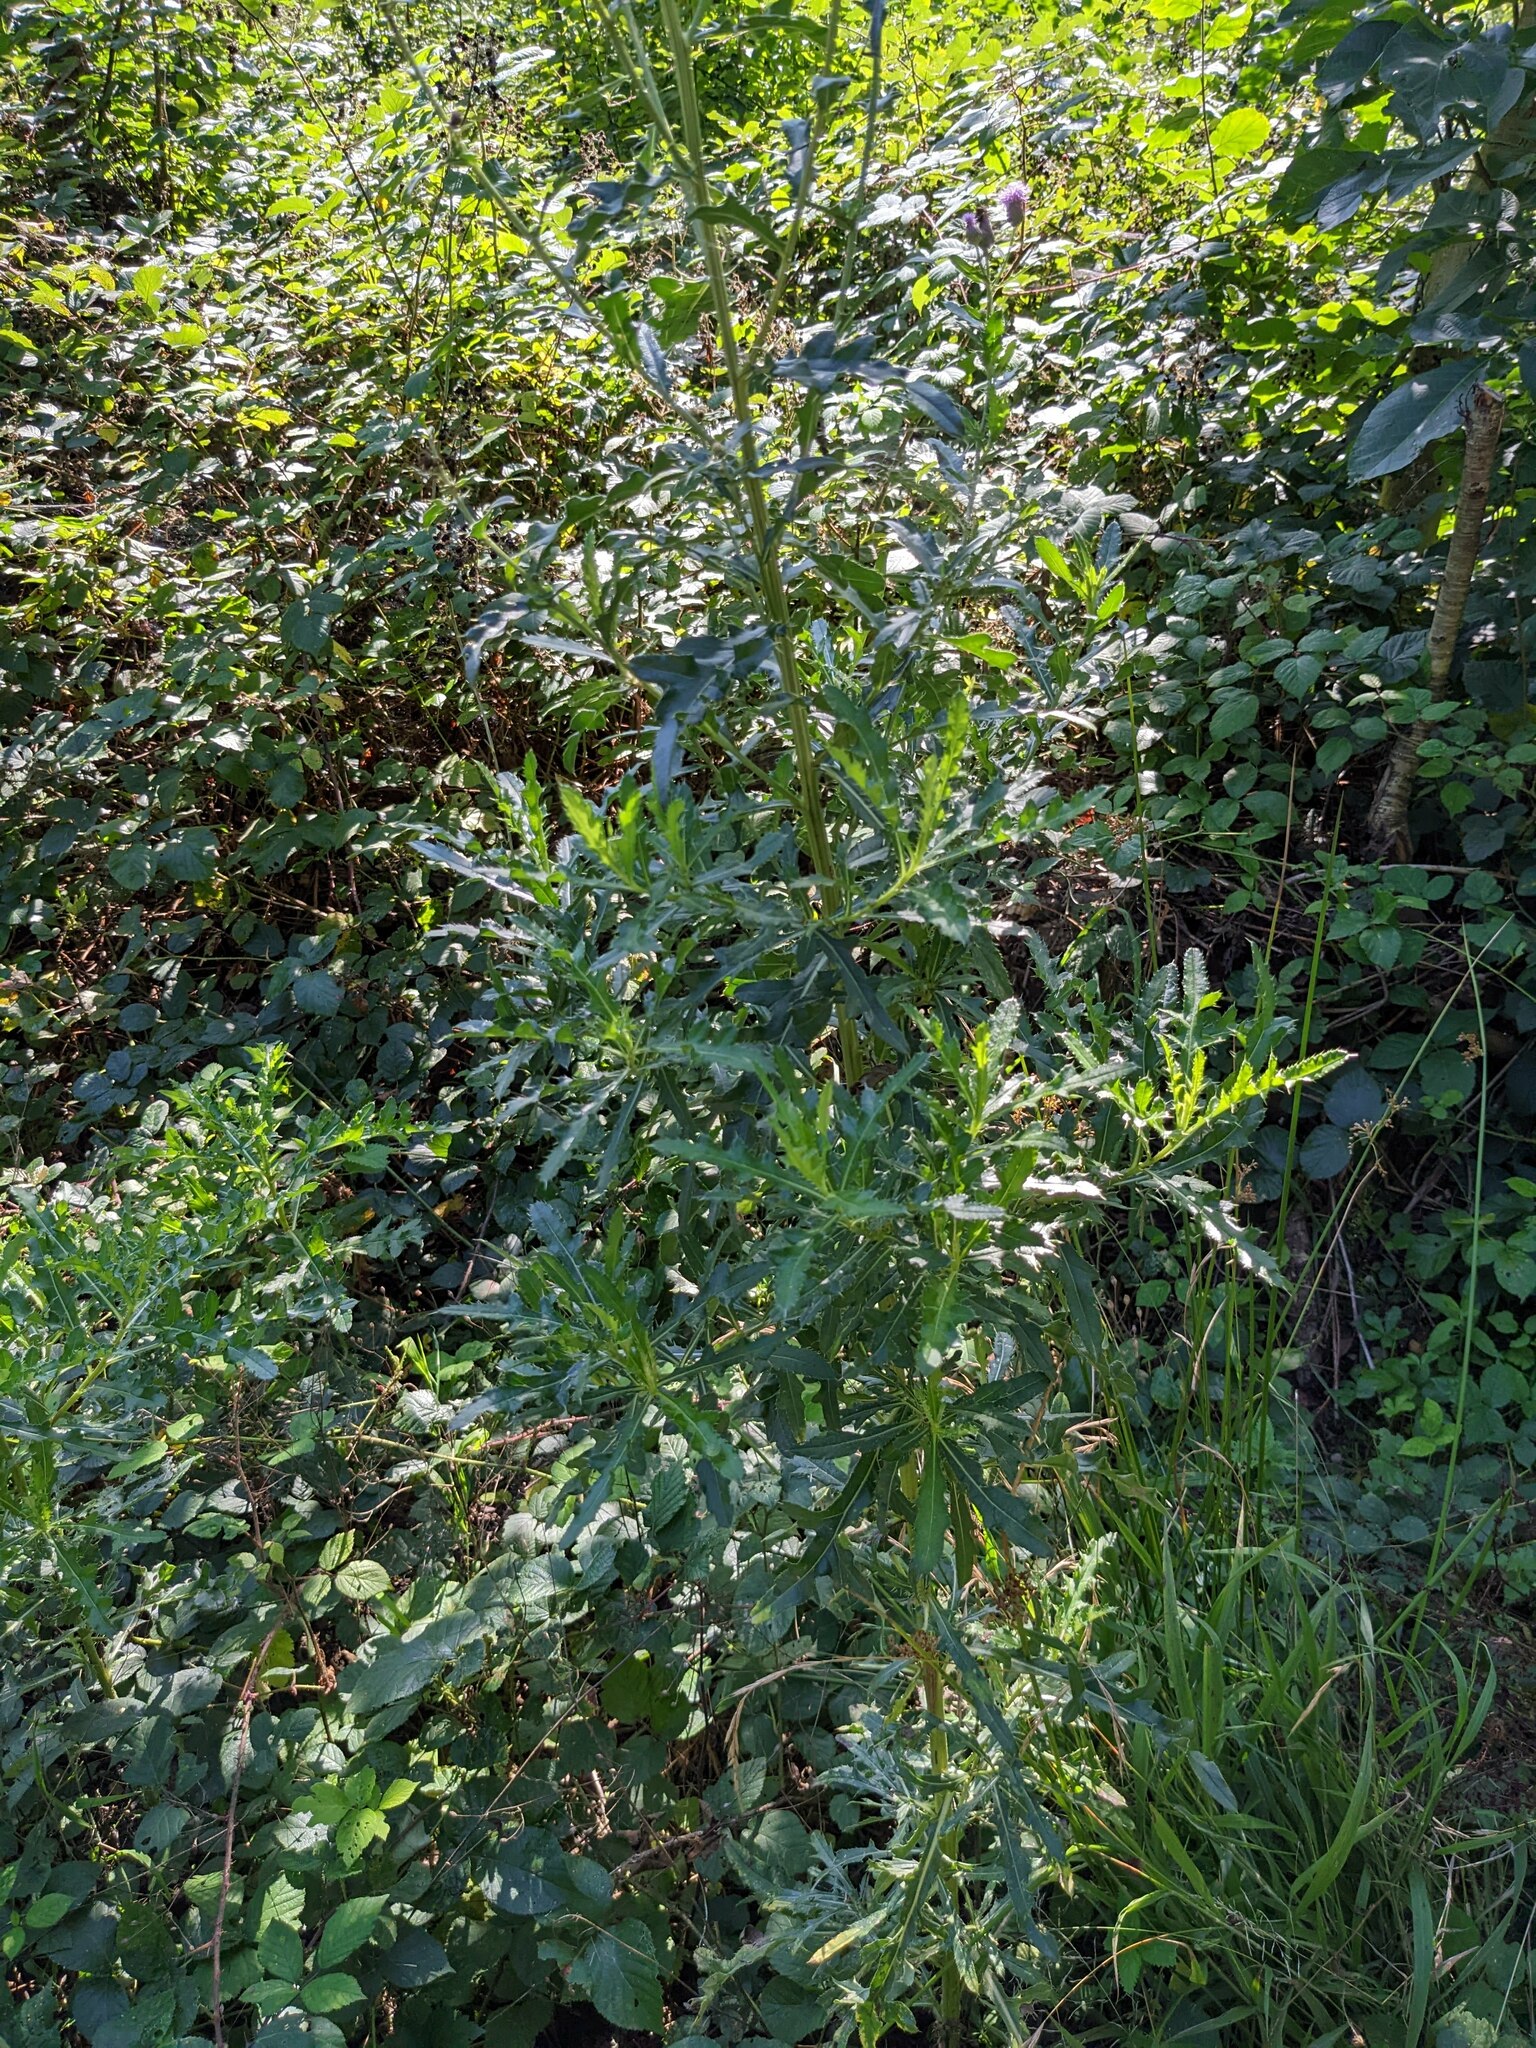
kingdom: Plantae
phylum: Tracheophyta
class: Magnoliopsida
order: Asterales
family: Asteraceae
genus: Cirsium
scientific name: Cirsium arvense
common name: Creeping thistle
